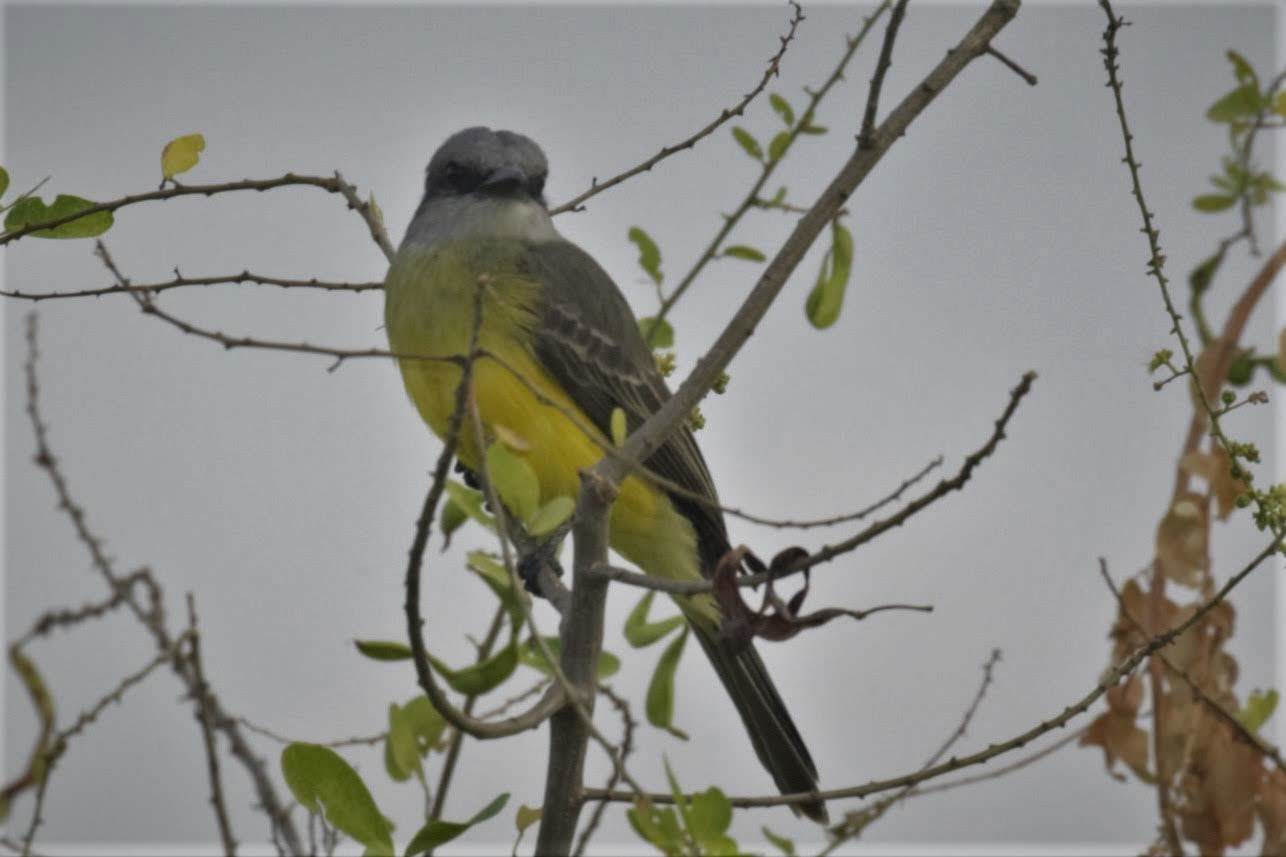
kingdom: Animalia
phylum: Chordata
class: Aves
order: Passeriformes
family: Tyrannidae
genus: Tyrannus
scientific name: Tyrannus melancholicus
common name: Tropical kingbird
